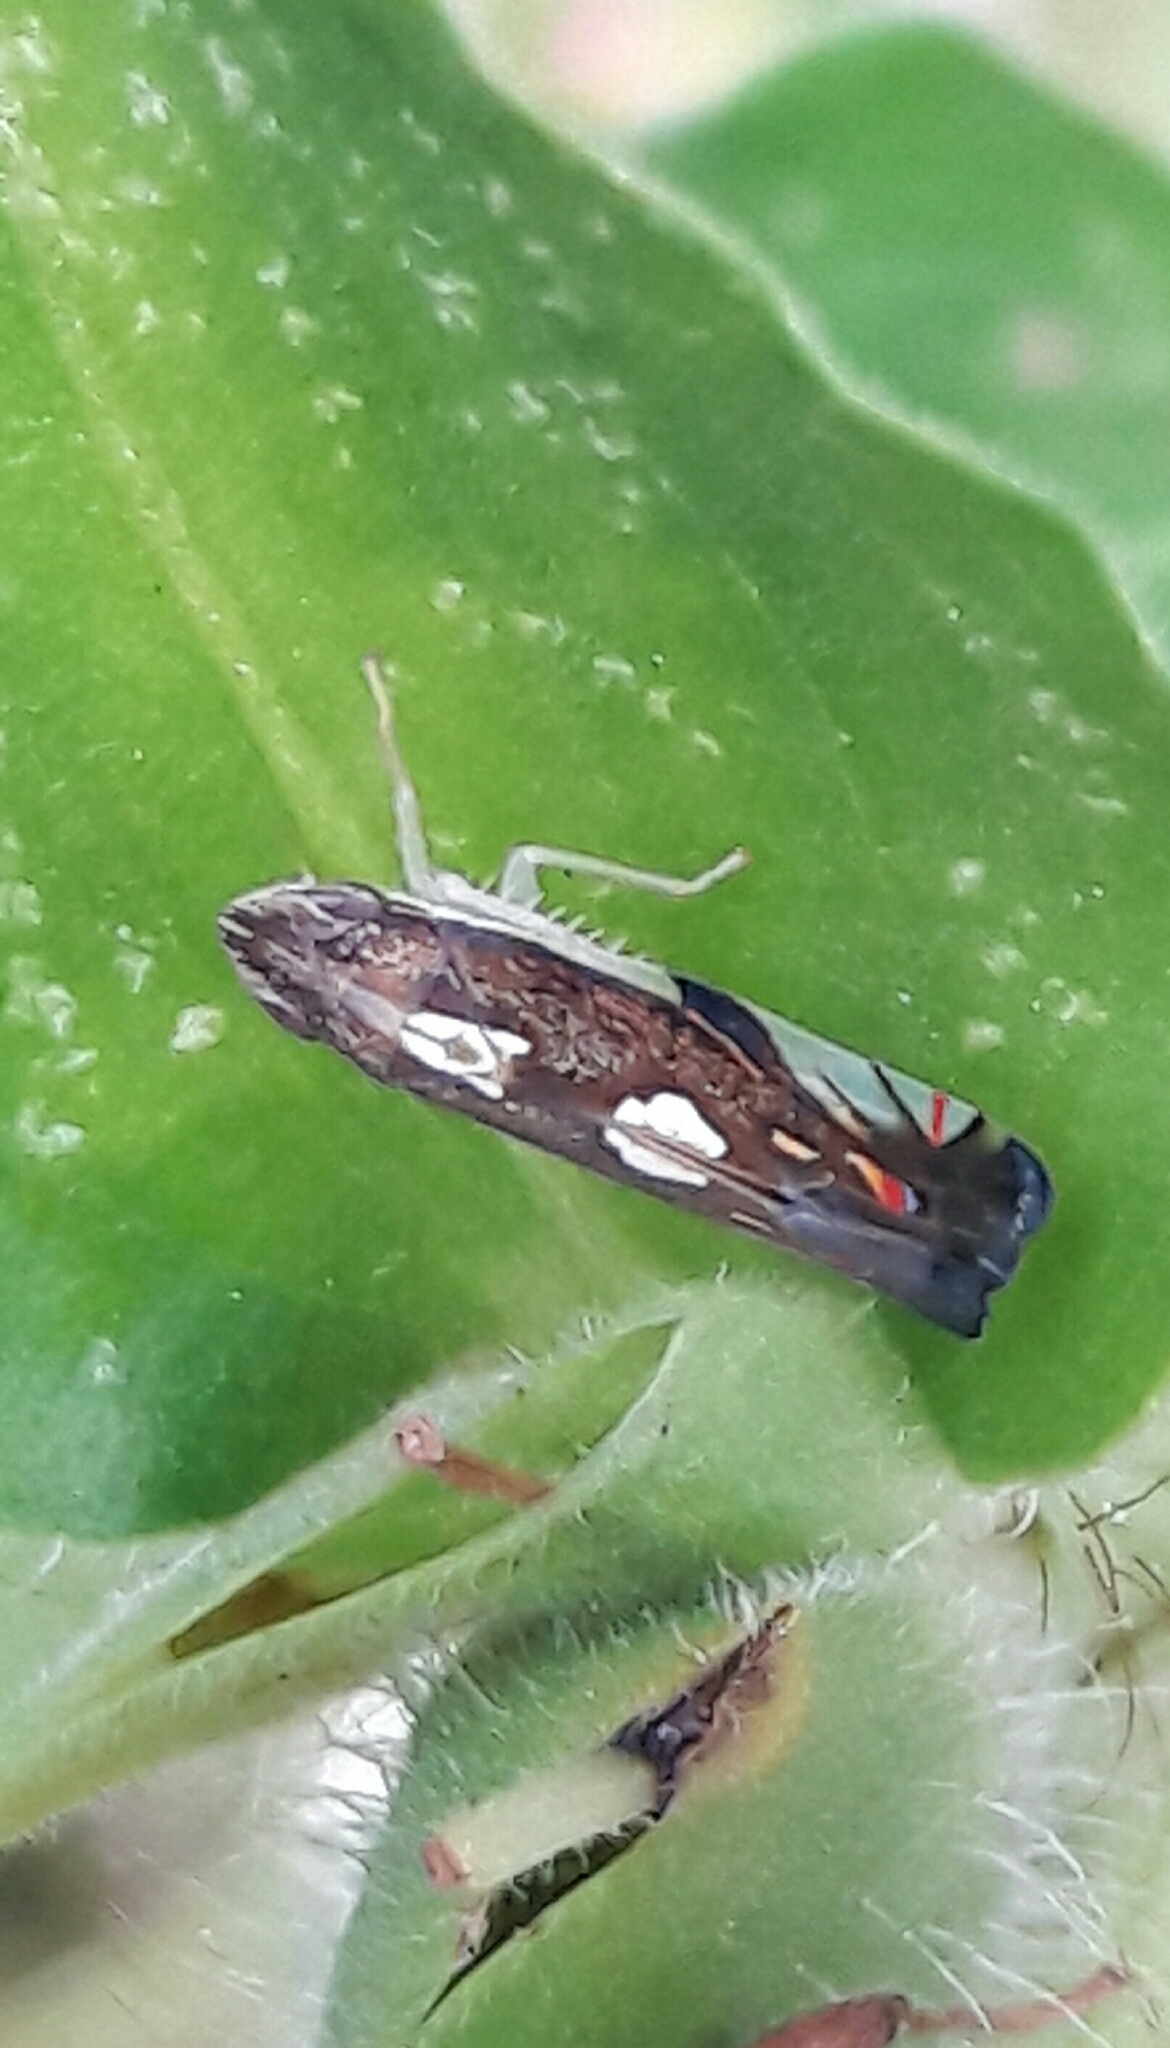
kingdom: Animalia
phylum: Arthropoda
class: Insecta
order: Hemiptera
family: Cicadellidae
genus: Diedrocephala
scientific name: Diedrocephala variegata
